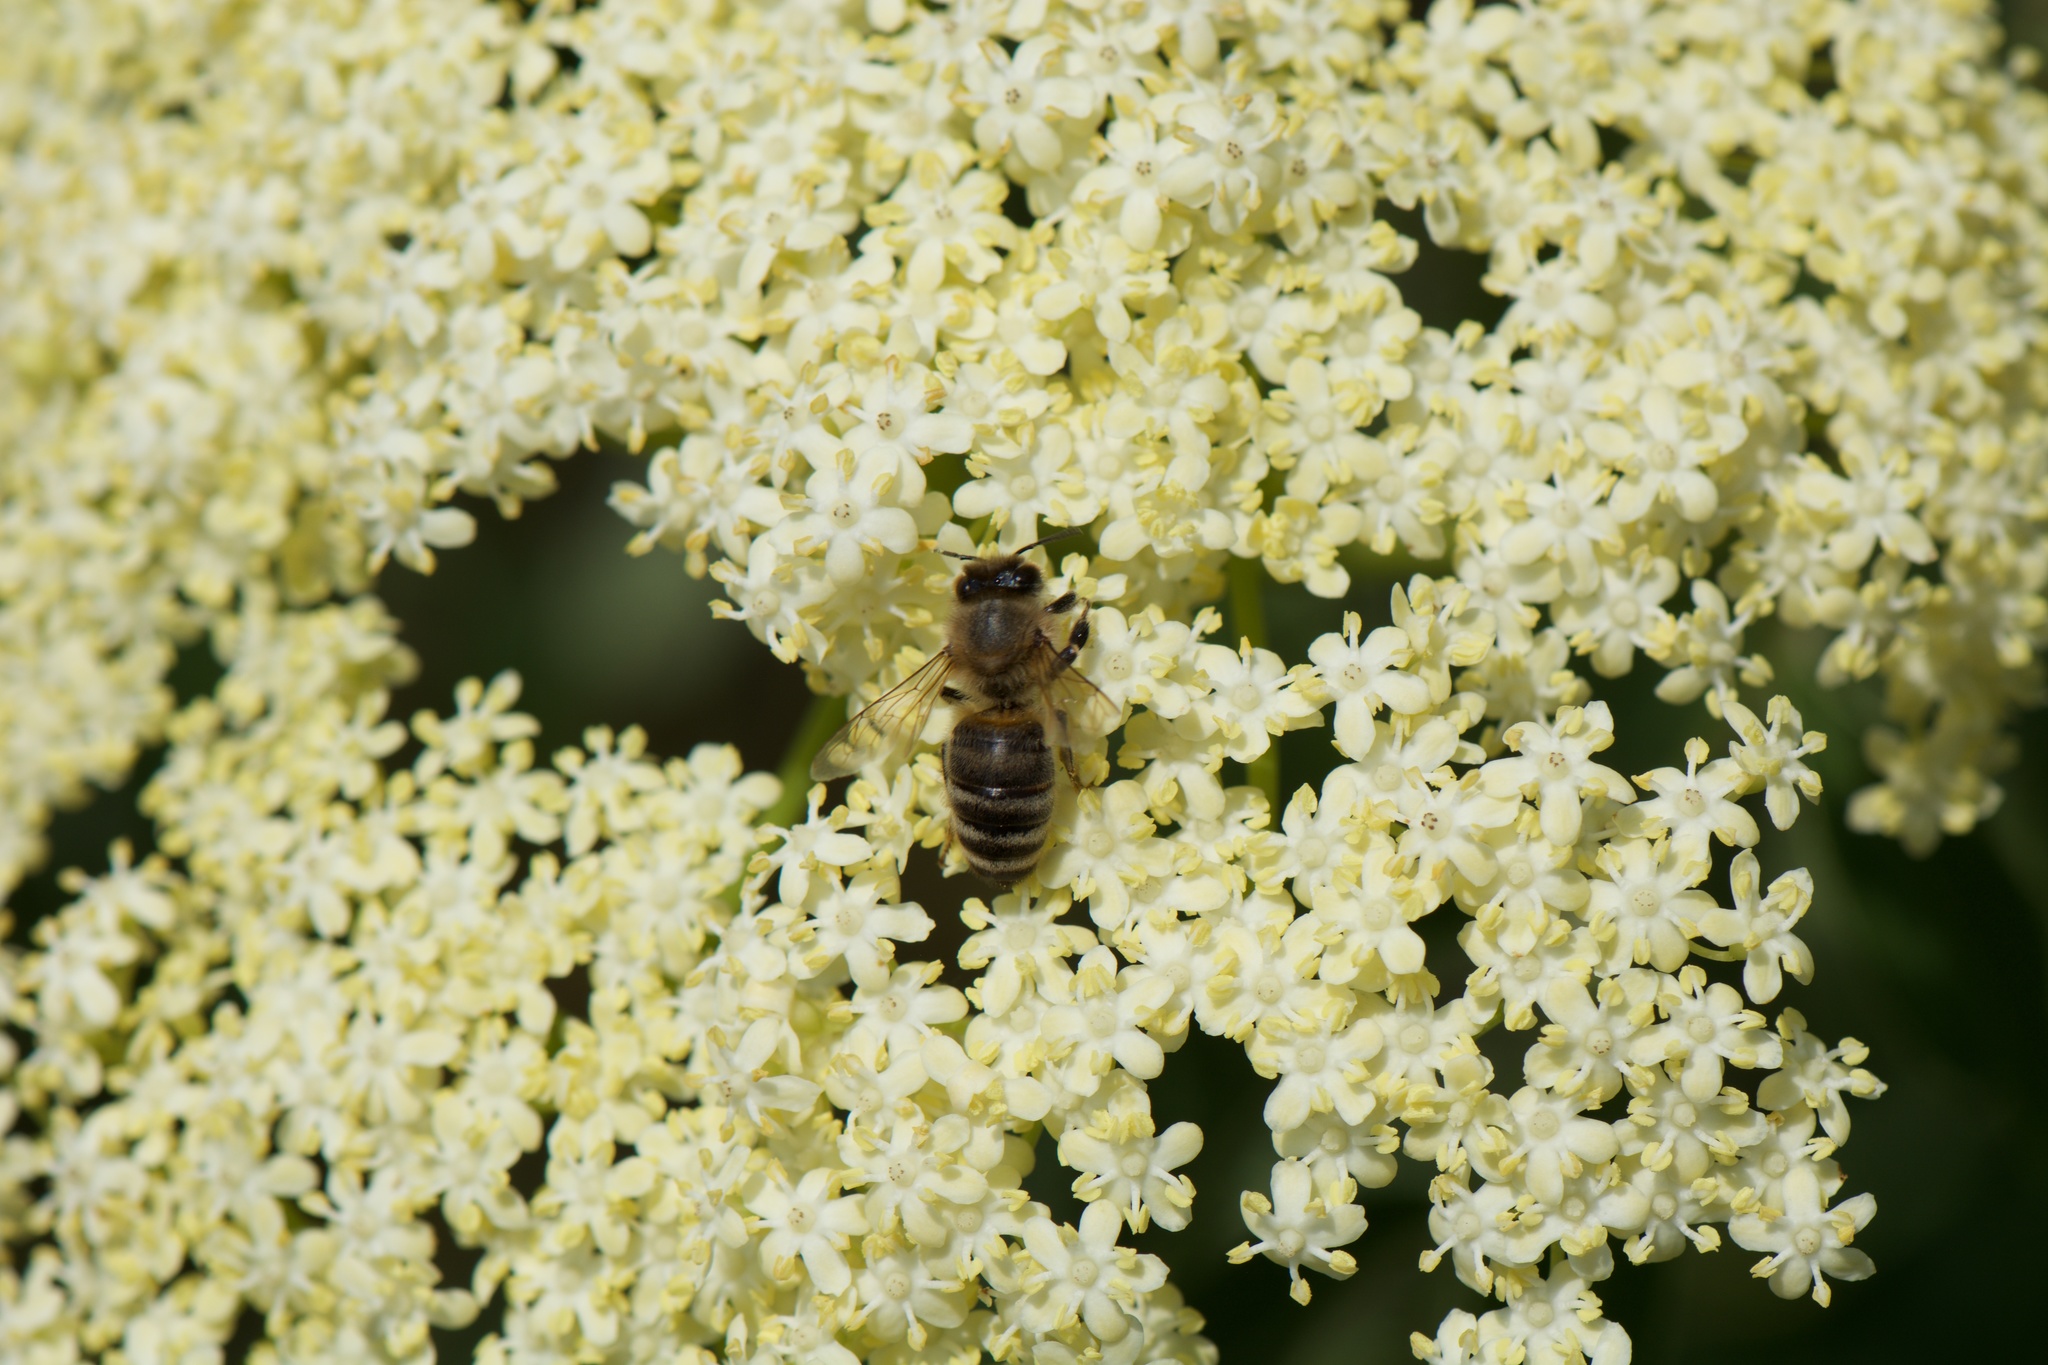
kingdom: Animalia
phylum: Arthropoda
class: Insecta
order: Hymenoptera
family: Apidae
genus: Apis
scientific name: Apis mellifera
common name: Honey bee
